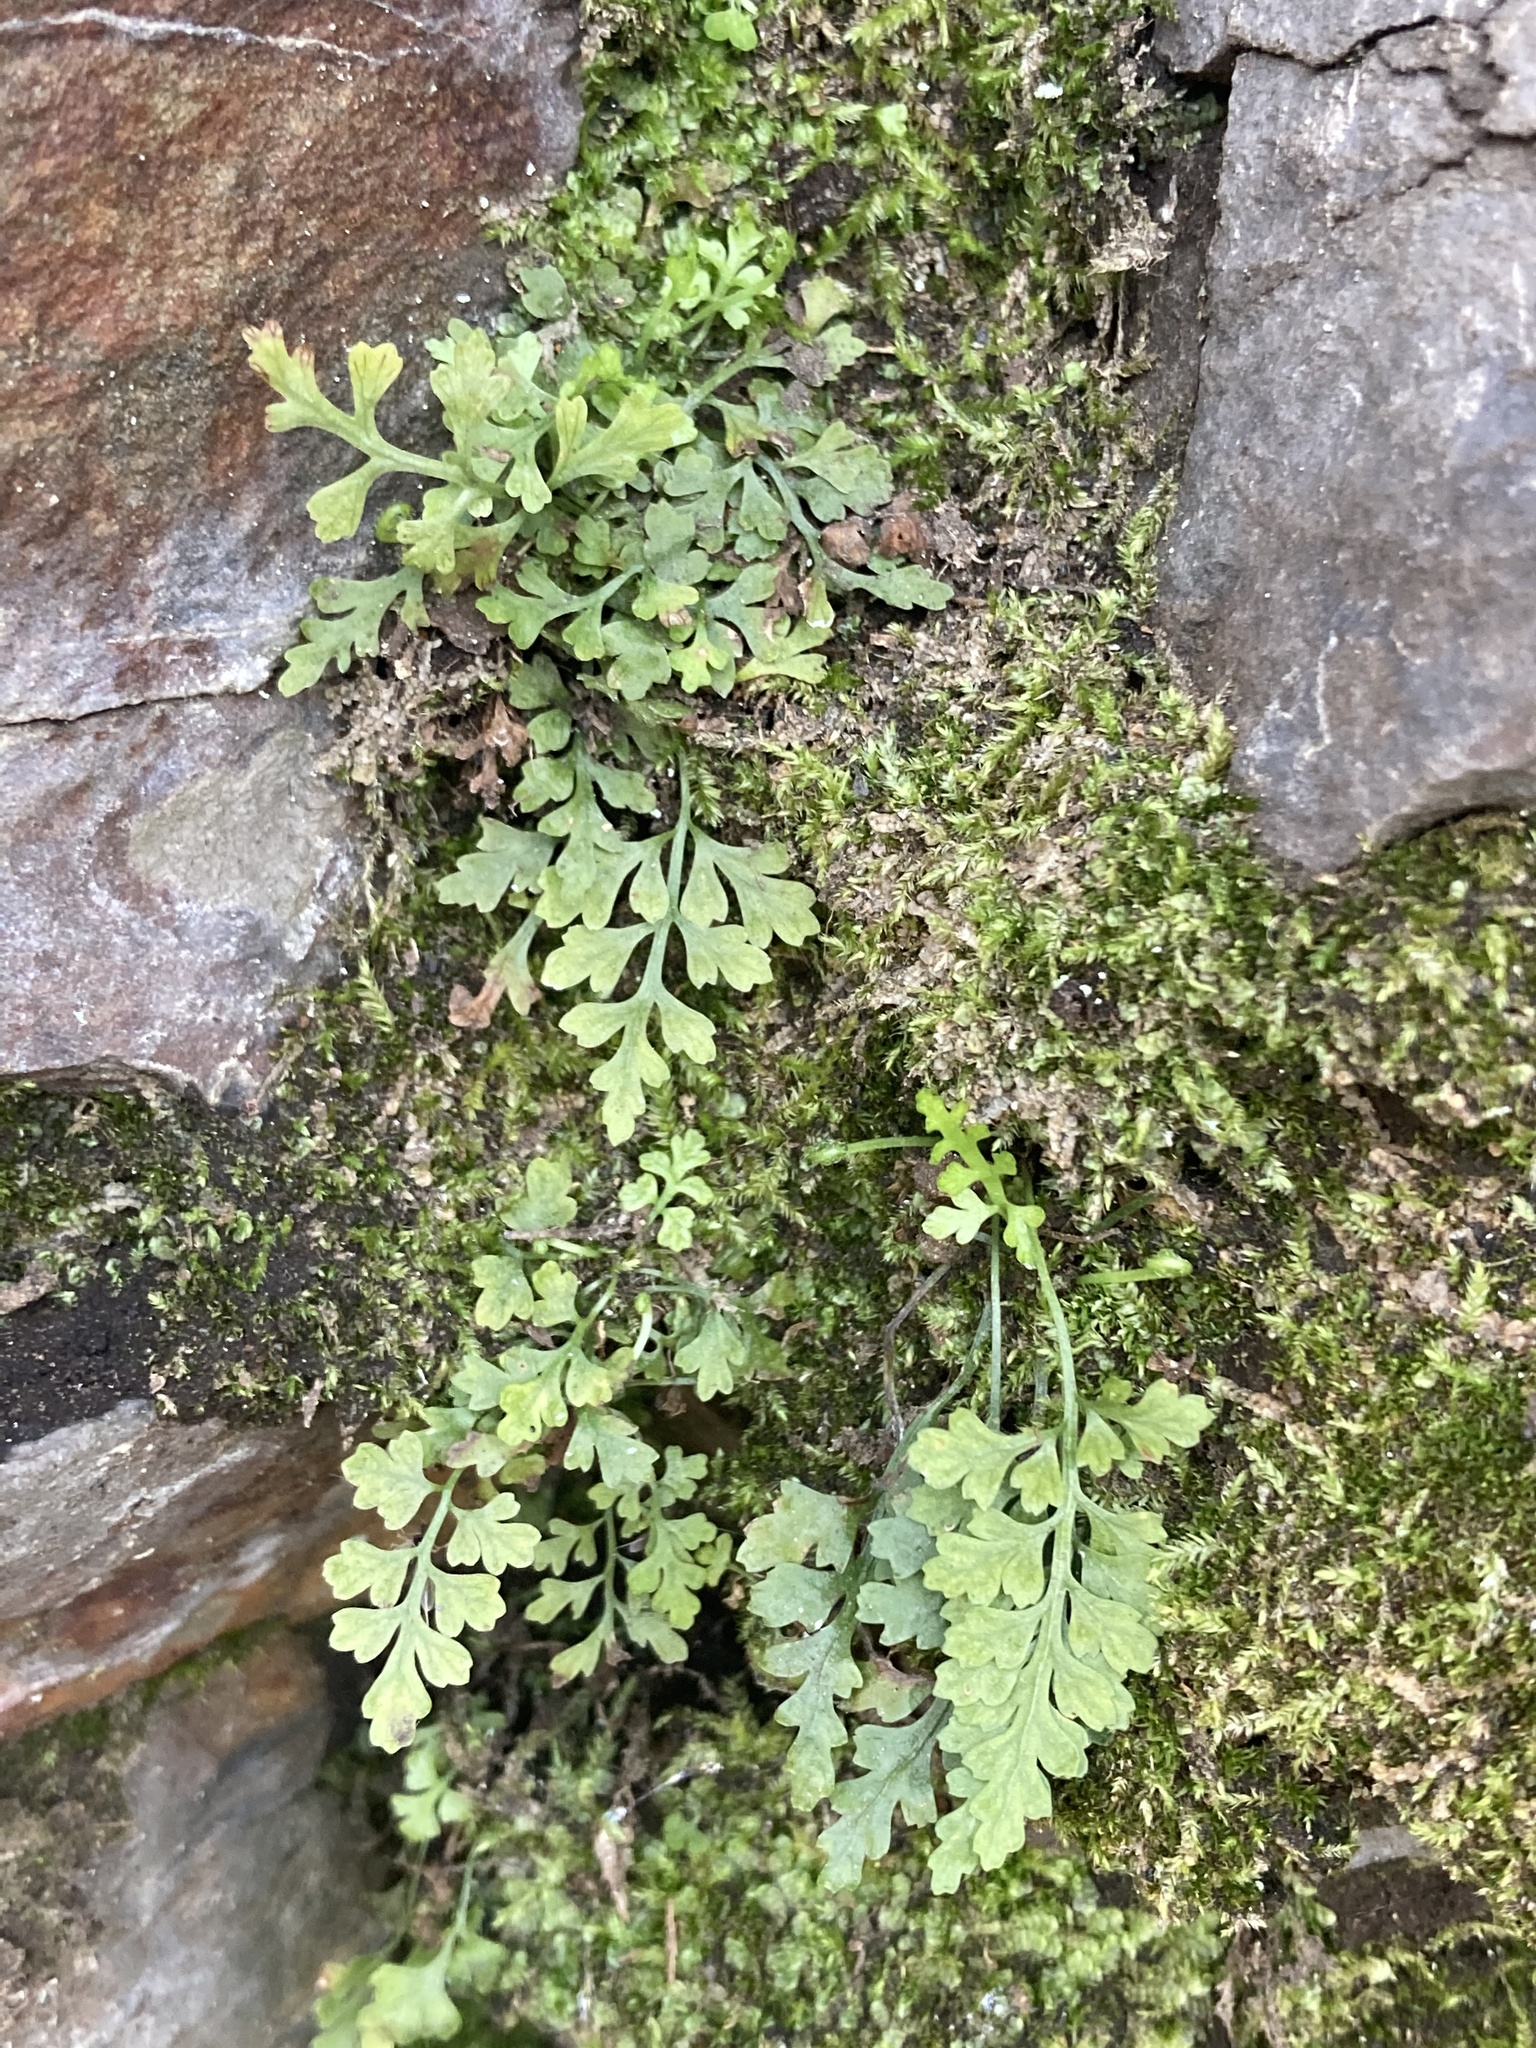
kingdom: Plantae
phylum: Tracheophyta
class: Polypodiopsida
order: Polypodiales
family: Aspleniaceae
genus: Asplenium
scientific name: Asplenium montanum
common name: Mountain spleenwort
